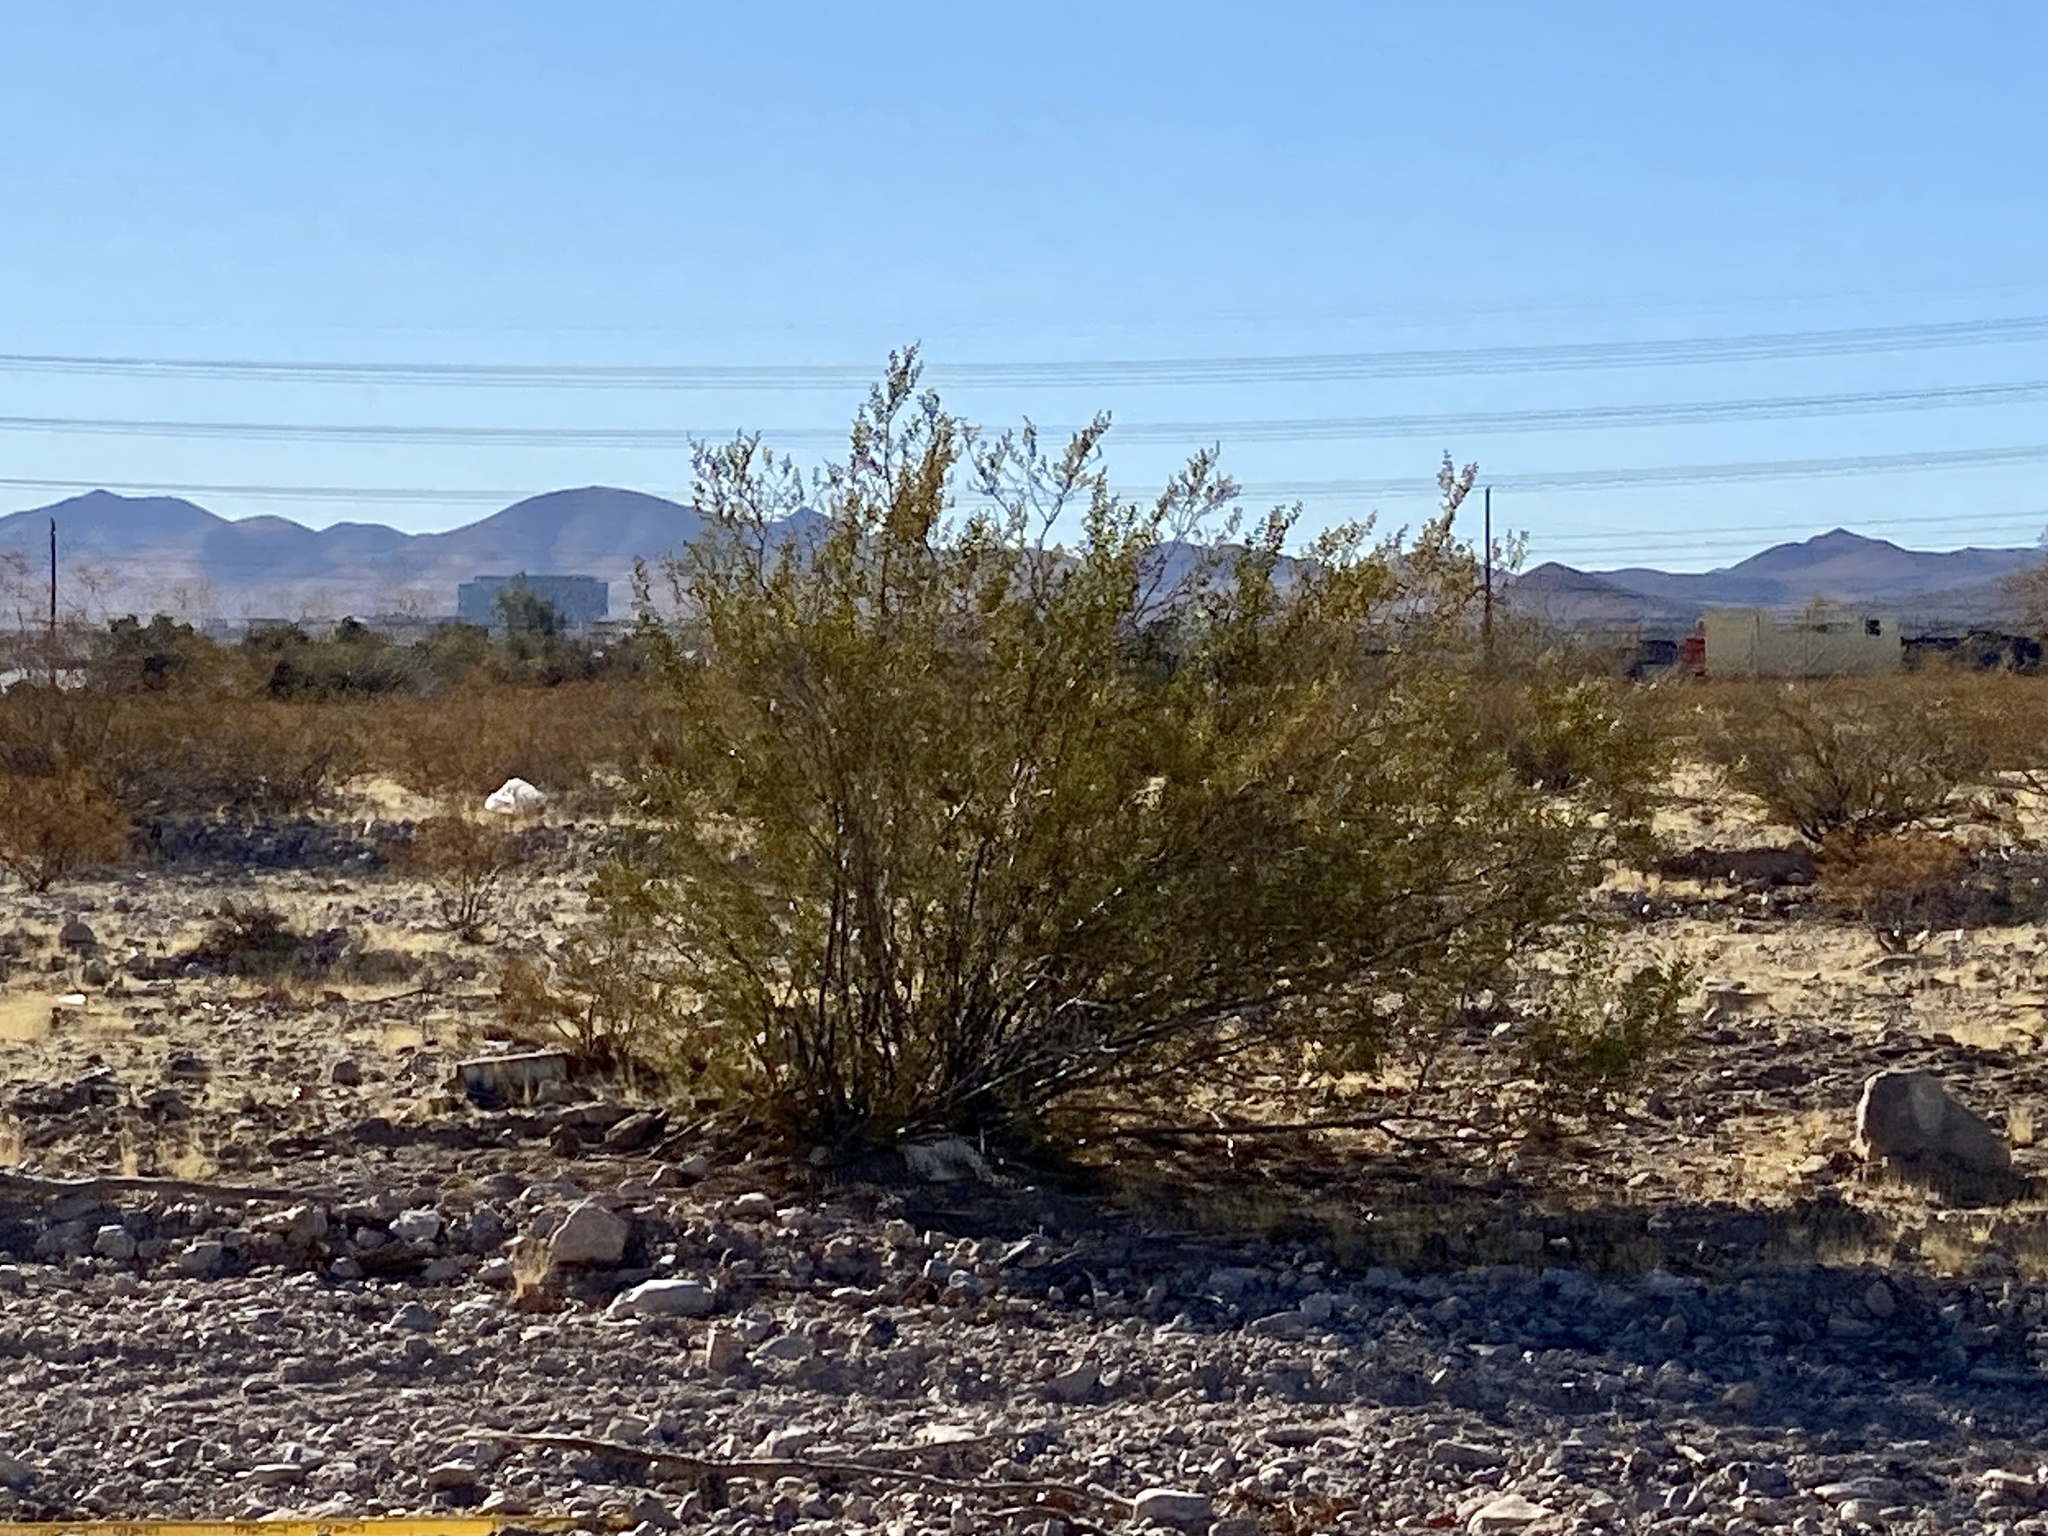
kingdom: Plantae
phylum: Tracheophyta
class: Magnoliopsida
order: Zygophyllales
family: Zygophyllaceae
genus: Larrea
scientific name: Larrea tridentata
